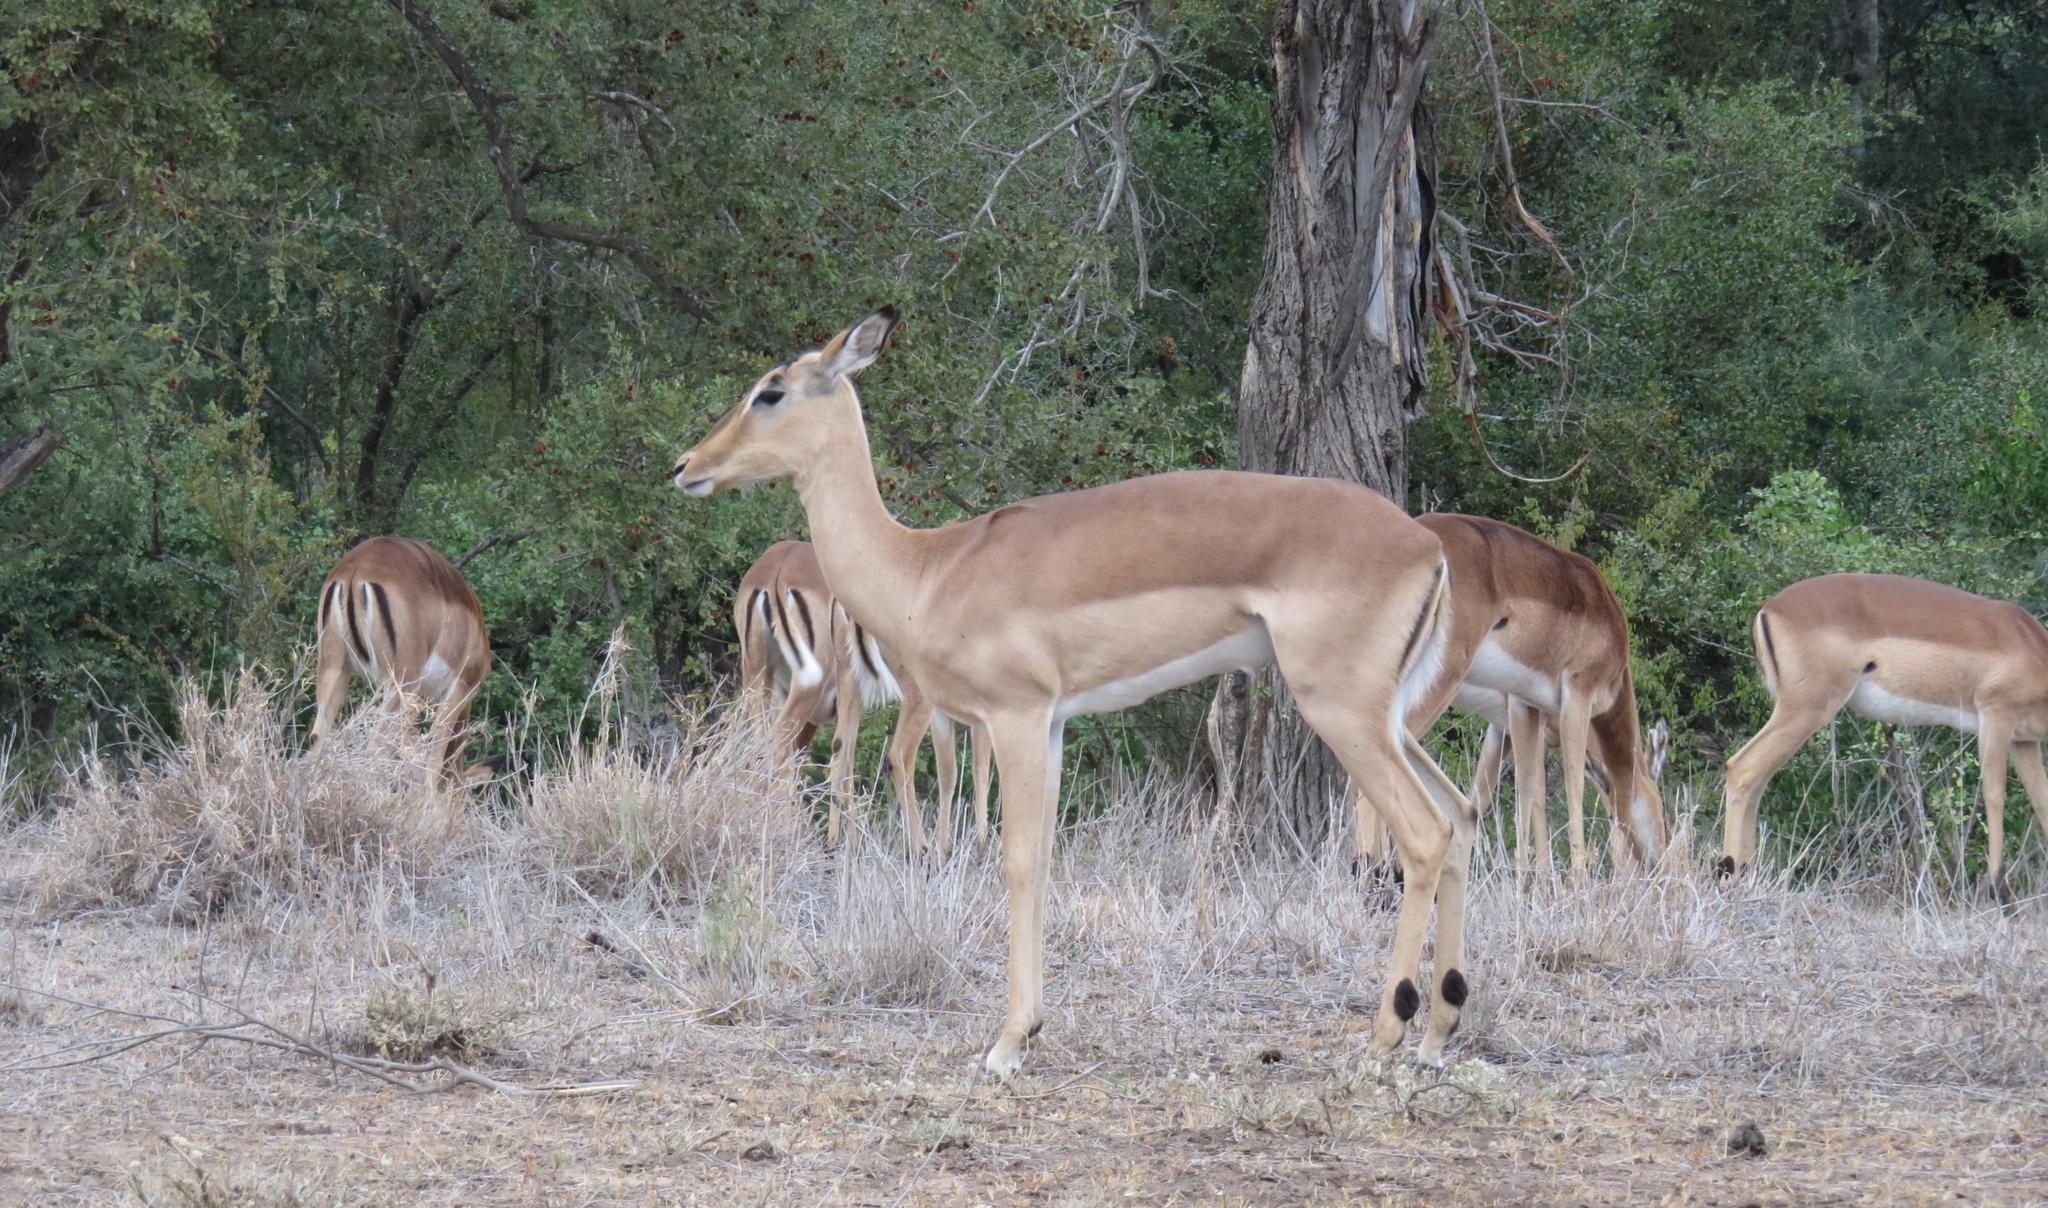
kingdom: Animalia
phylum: Chordata
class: Mammalia
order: Artiodactyla
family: Bovidae
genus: Aepyceros
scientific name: Aepyceros melampus
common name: Impala
